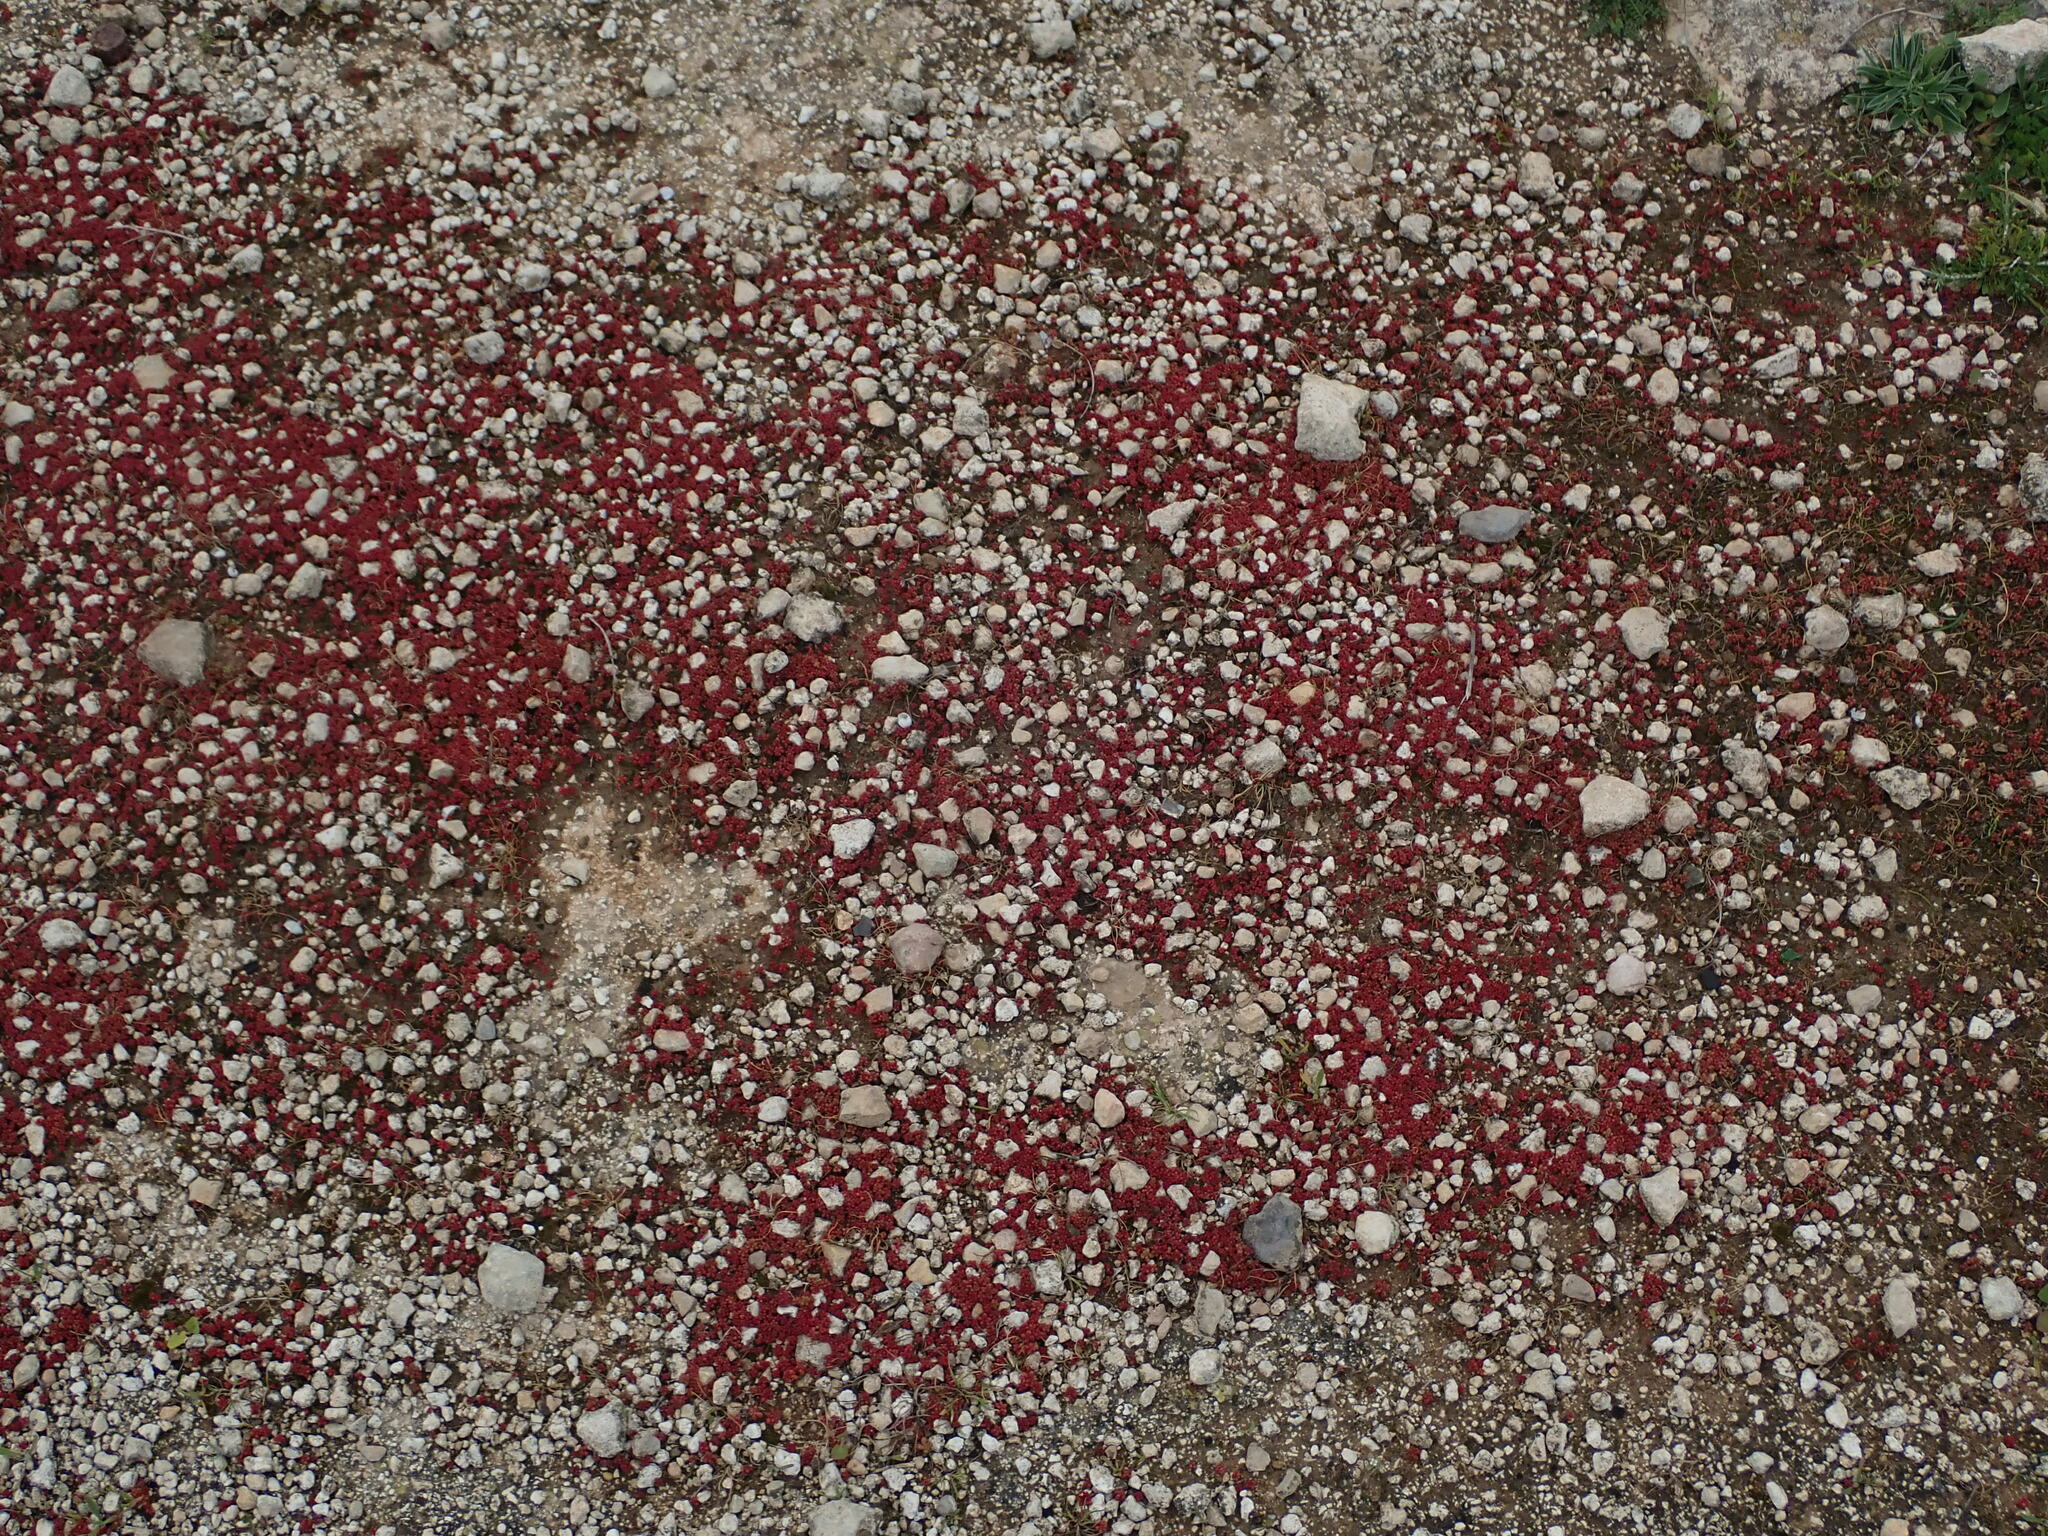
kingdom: Plantae
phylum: Tracheophyta
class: Magnoliopsida
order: Saxifragales
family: Crassulaceae
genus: Sedum
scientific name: Sedum caeruleum
